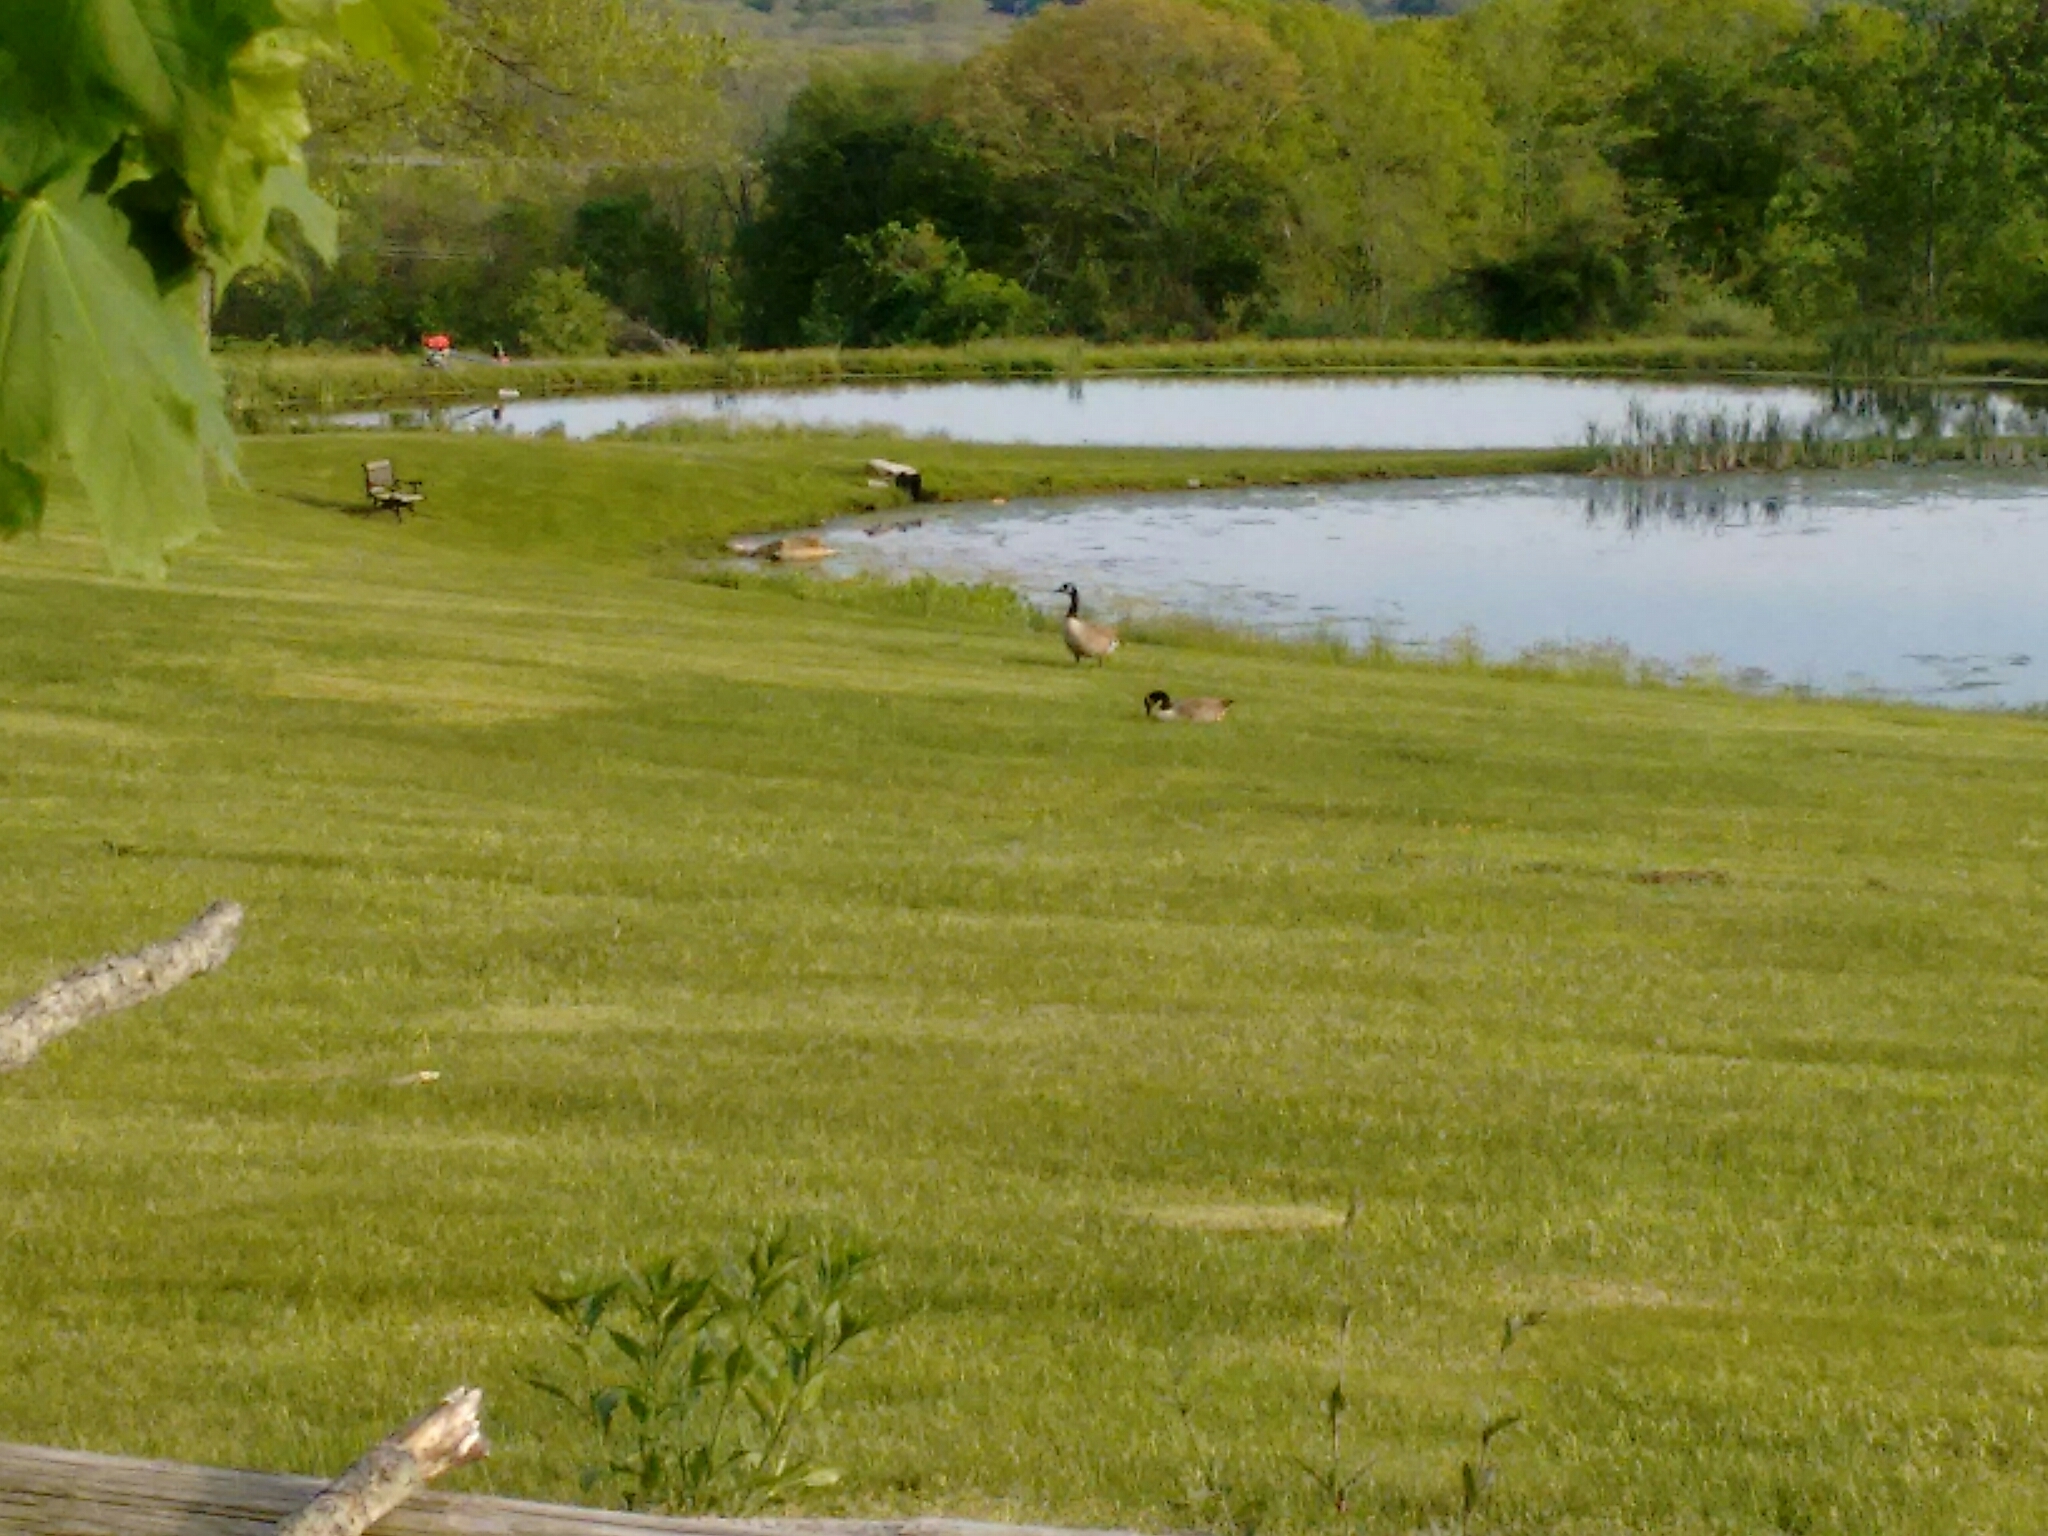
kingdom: Animalia
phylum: Chordata
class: Aves
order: Anseriformes
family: Anatidae
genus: Branta
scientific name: Branta canadensis
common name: Canada goose
